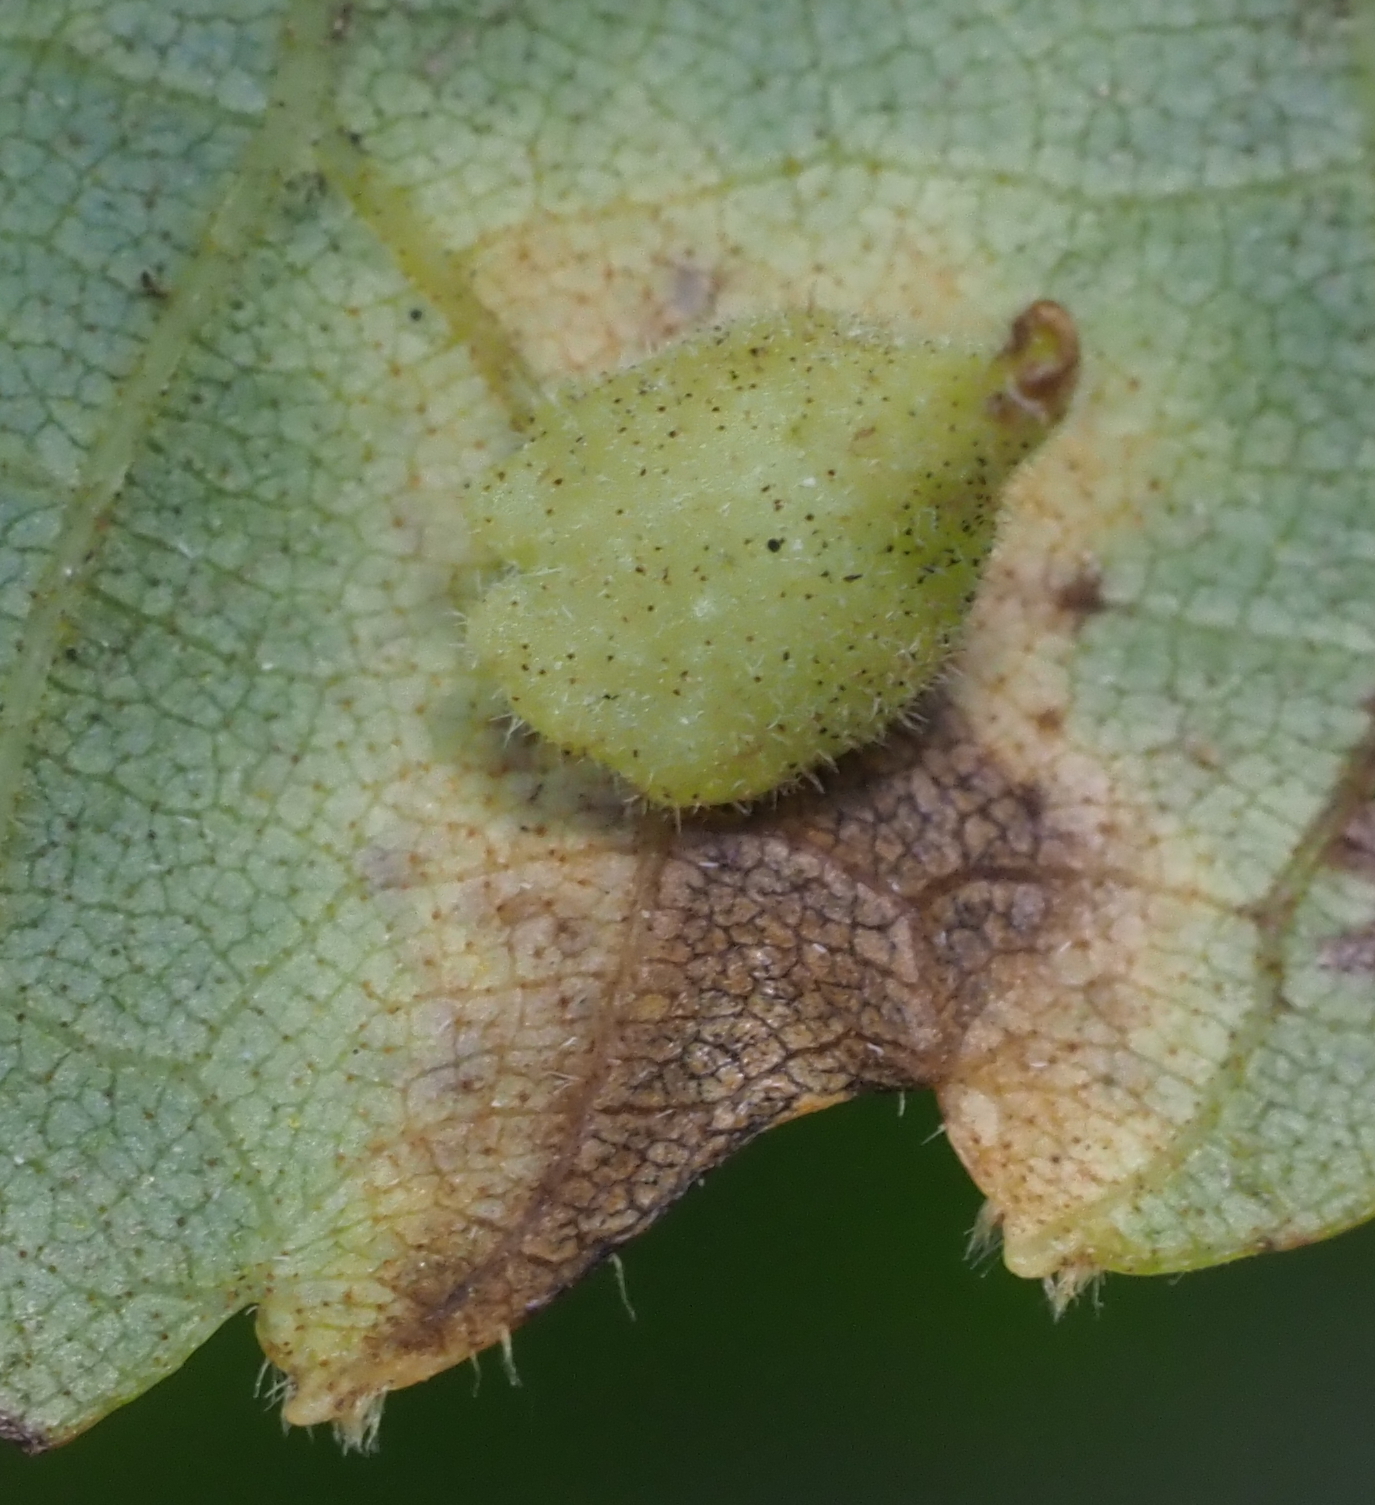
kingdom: Animalia
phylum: Arthropoda
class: Insecta
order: Diptera
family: Cecidomyiidae
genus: Caryomyia
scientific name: Caryomyia inclinata
